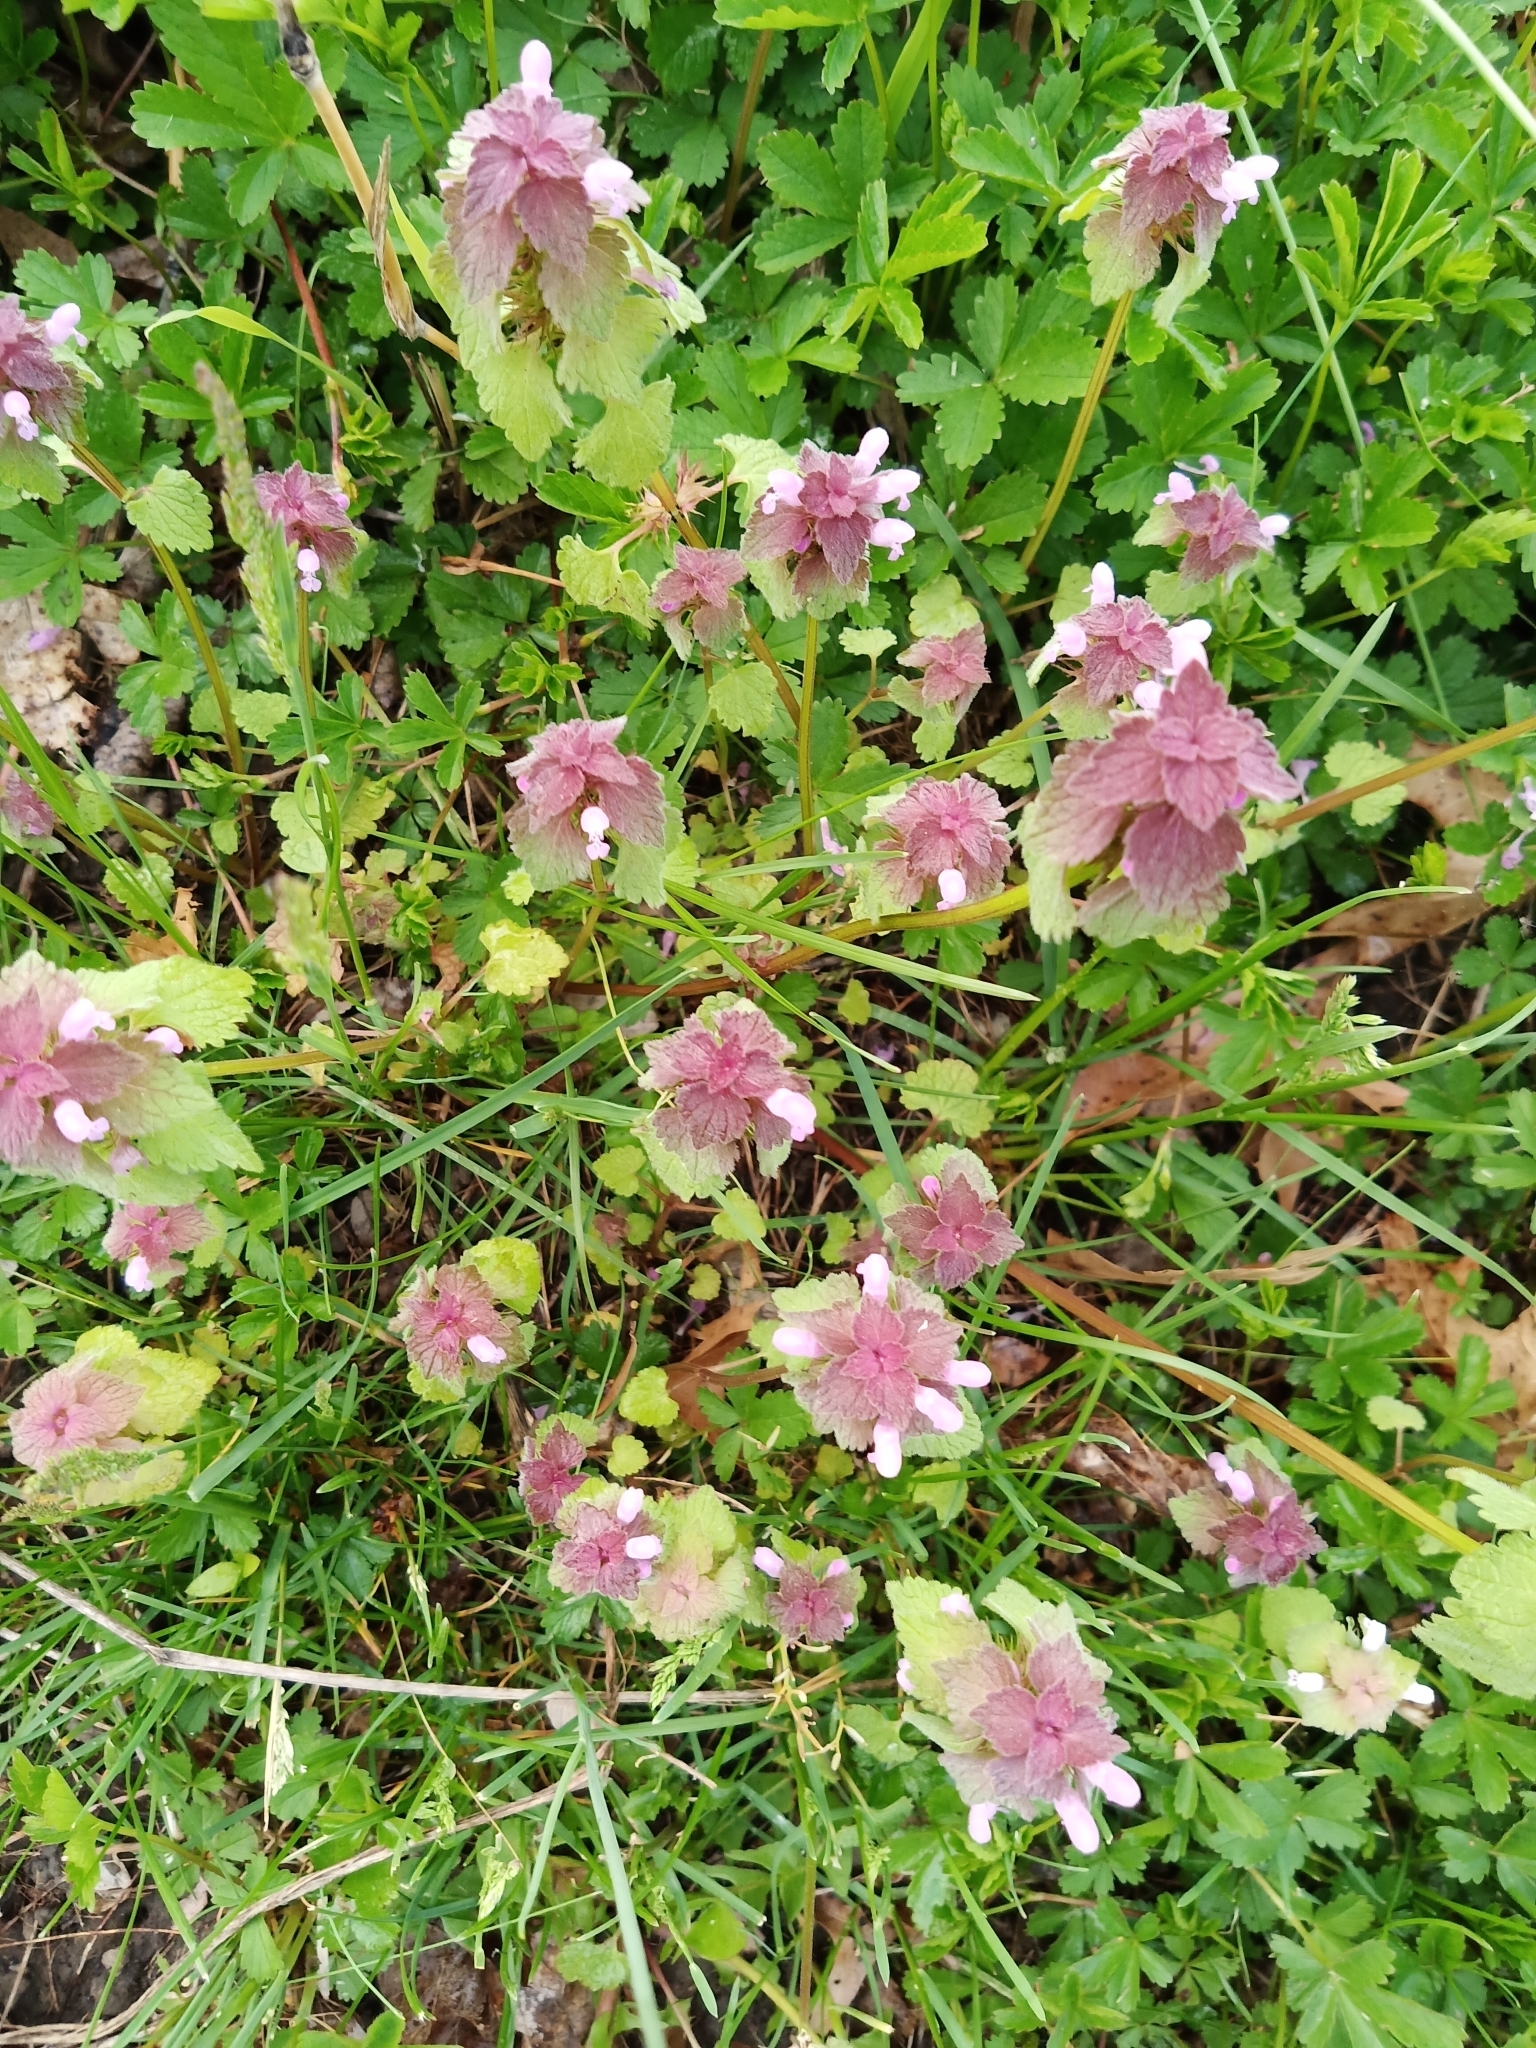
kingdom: Plantae
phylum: Tracheophyta
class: Magnoliopsida
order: Lamiales
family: Lamiaceae
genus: Lamium
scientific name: Lamium purpureum
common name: Red dead-nettle
